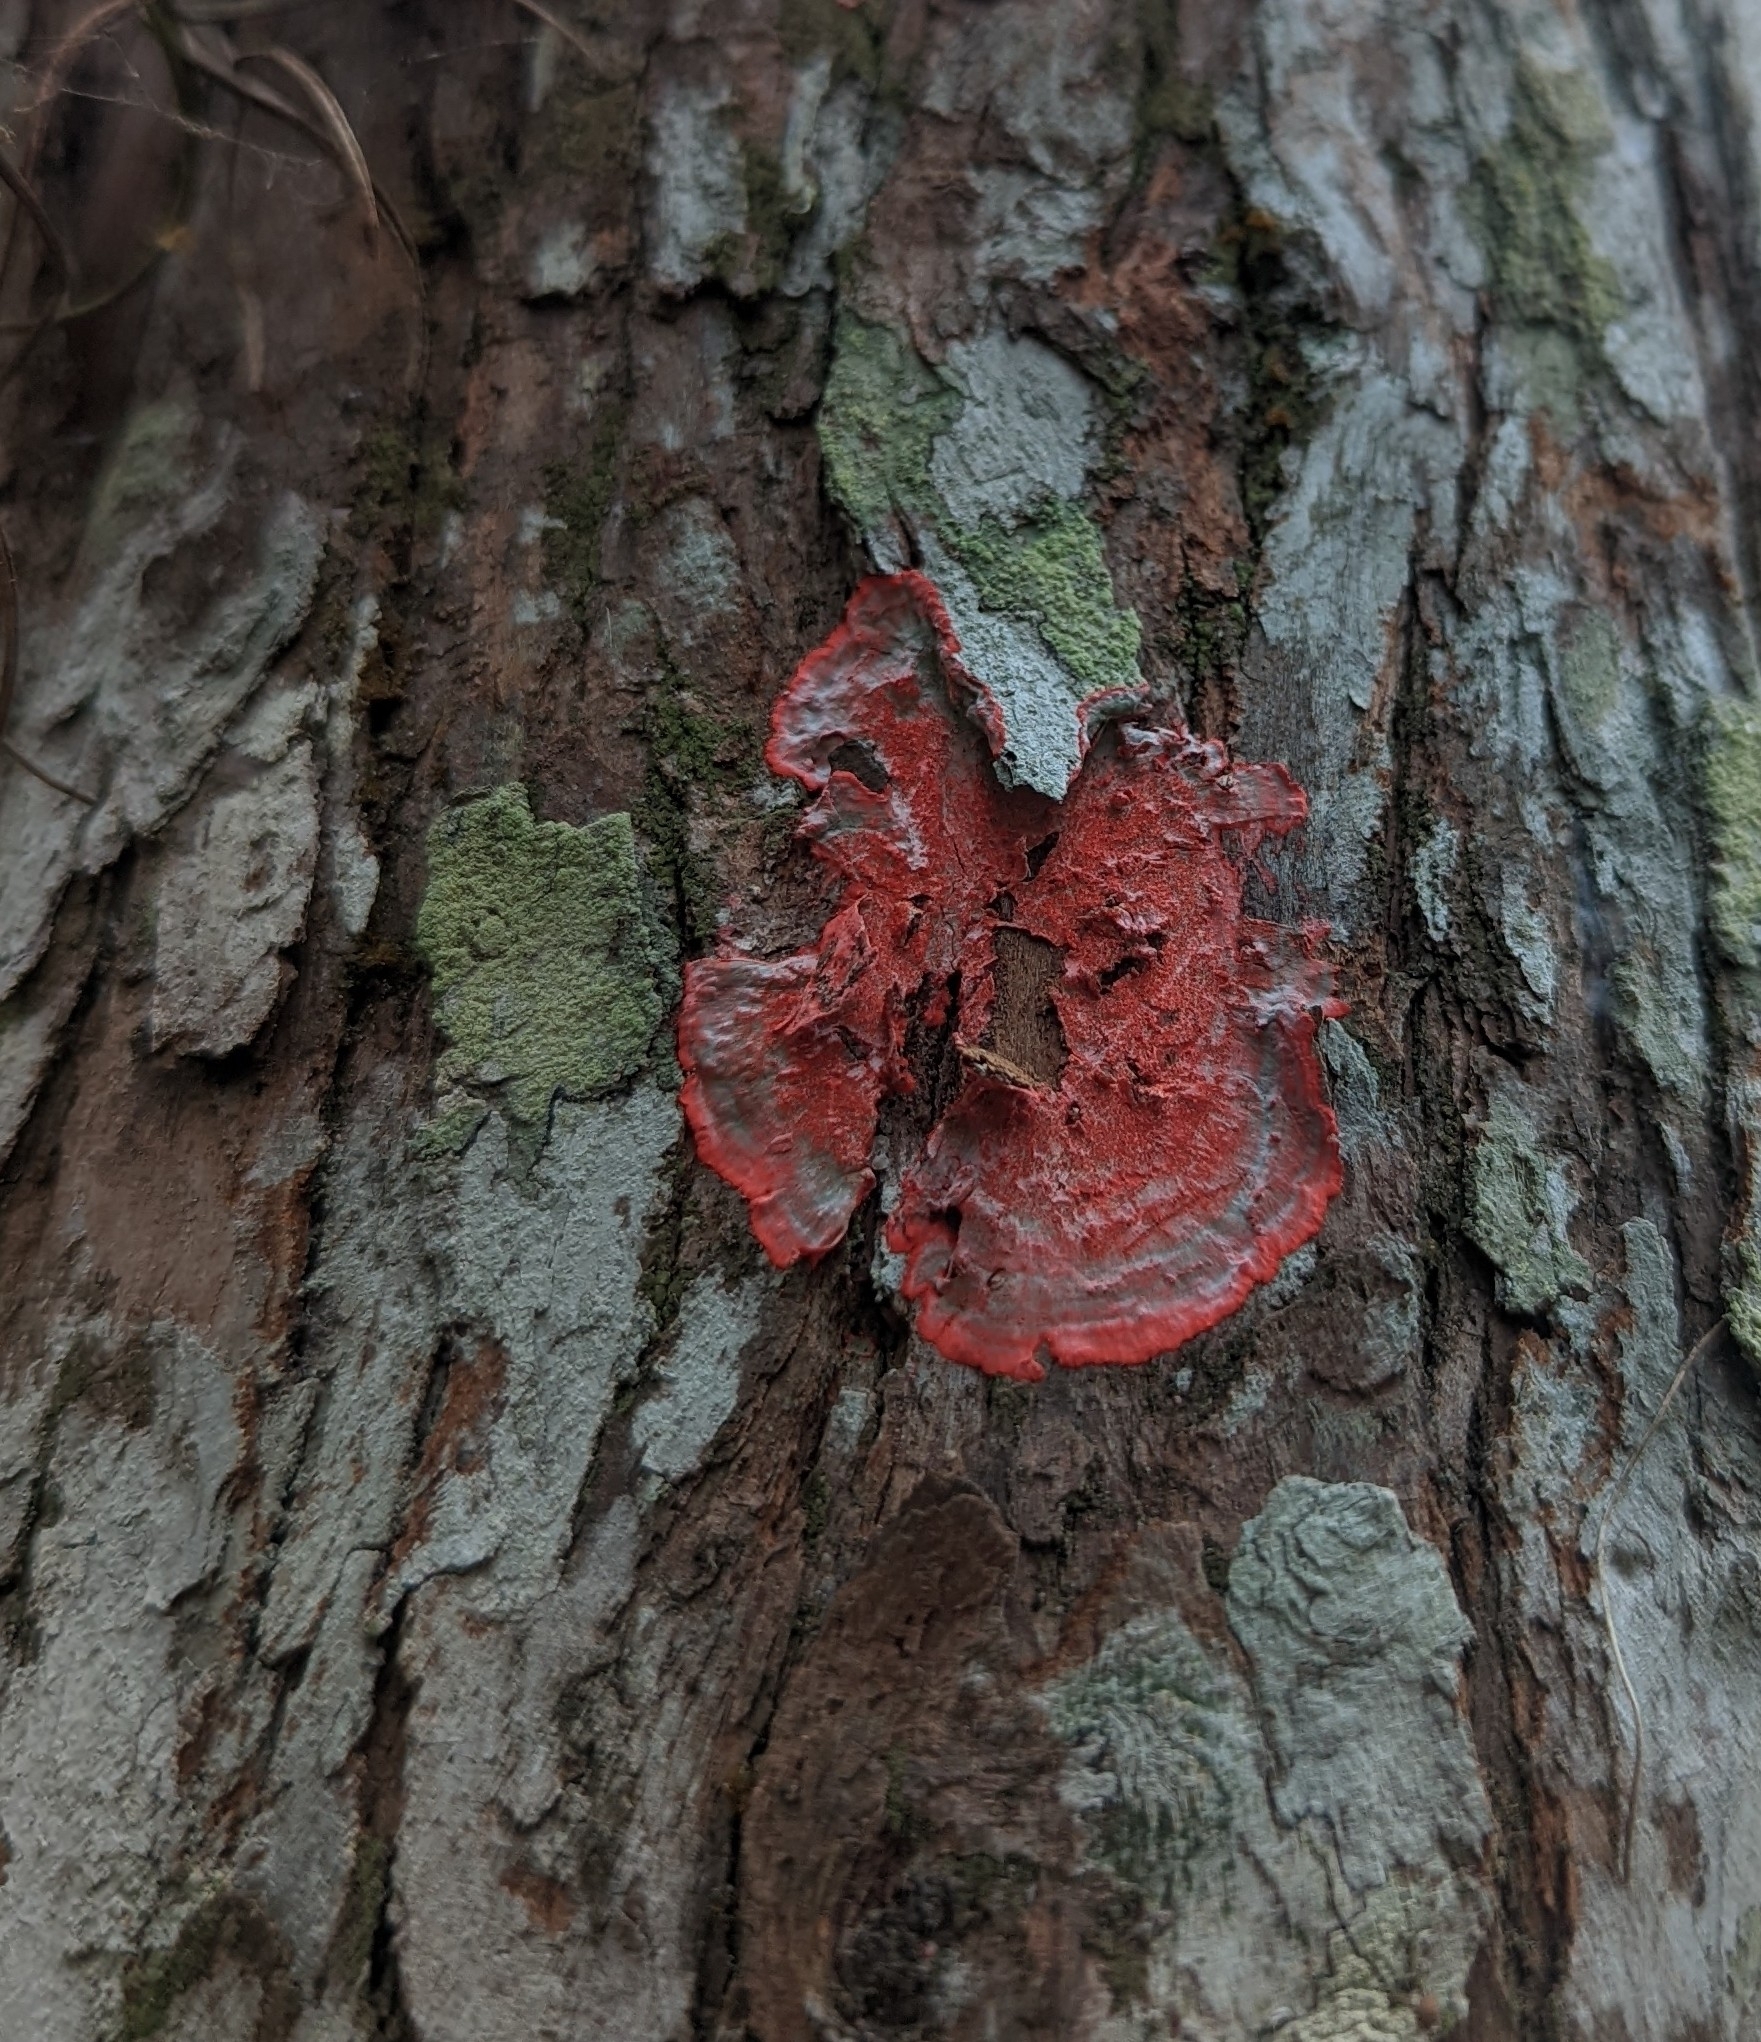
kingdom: Fungi
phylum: Ascomycota
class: Arthoniomycetes
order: Arthoniales
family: Arthoniaceae
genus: Herpothallon
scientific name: Herpothallon rubrocinctum
